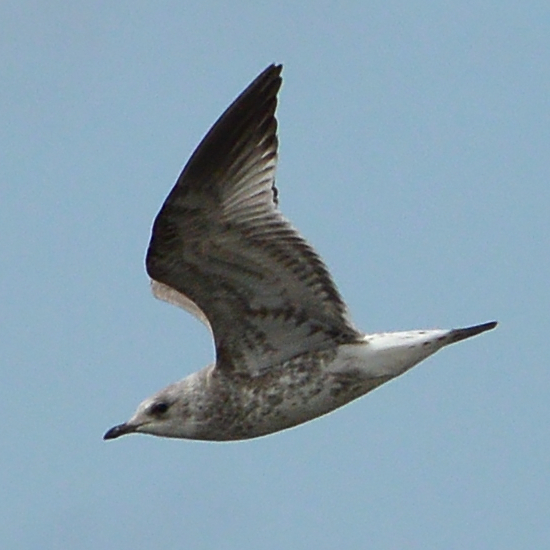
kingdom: Animalia
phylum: Chordata
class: Aves
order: Charadriiformes
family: Laridae
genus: Larus
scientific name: Larus canus
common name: Mew gull
